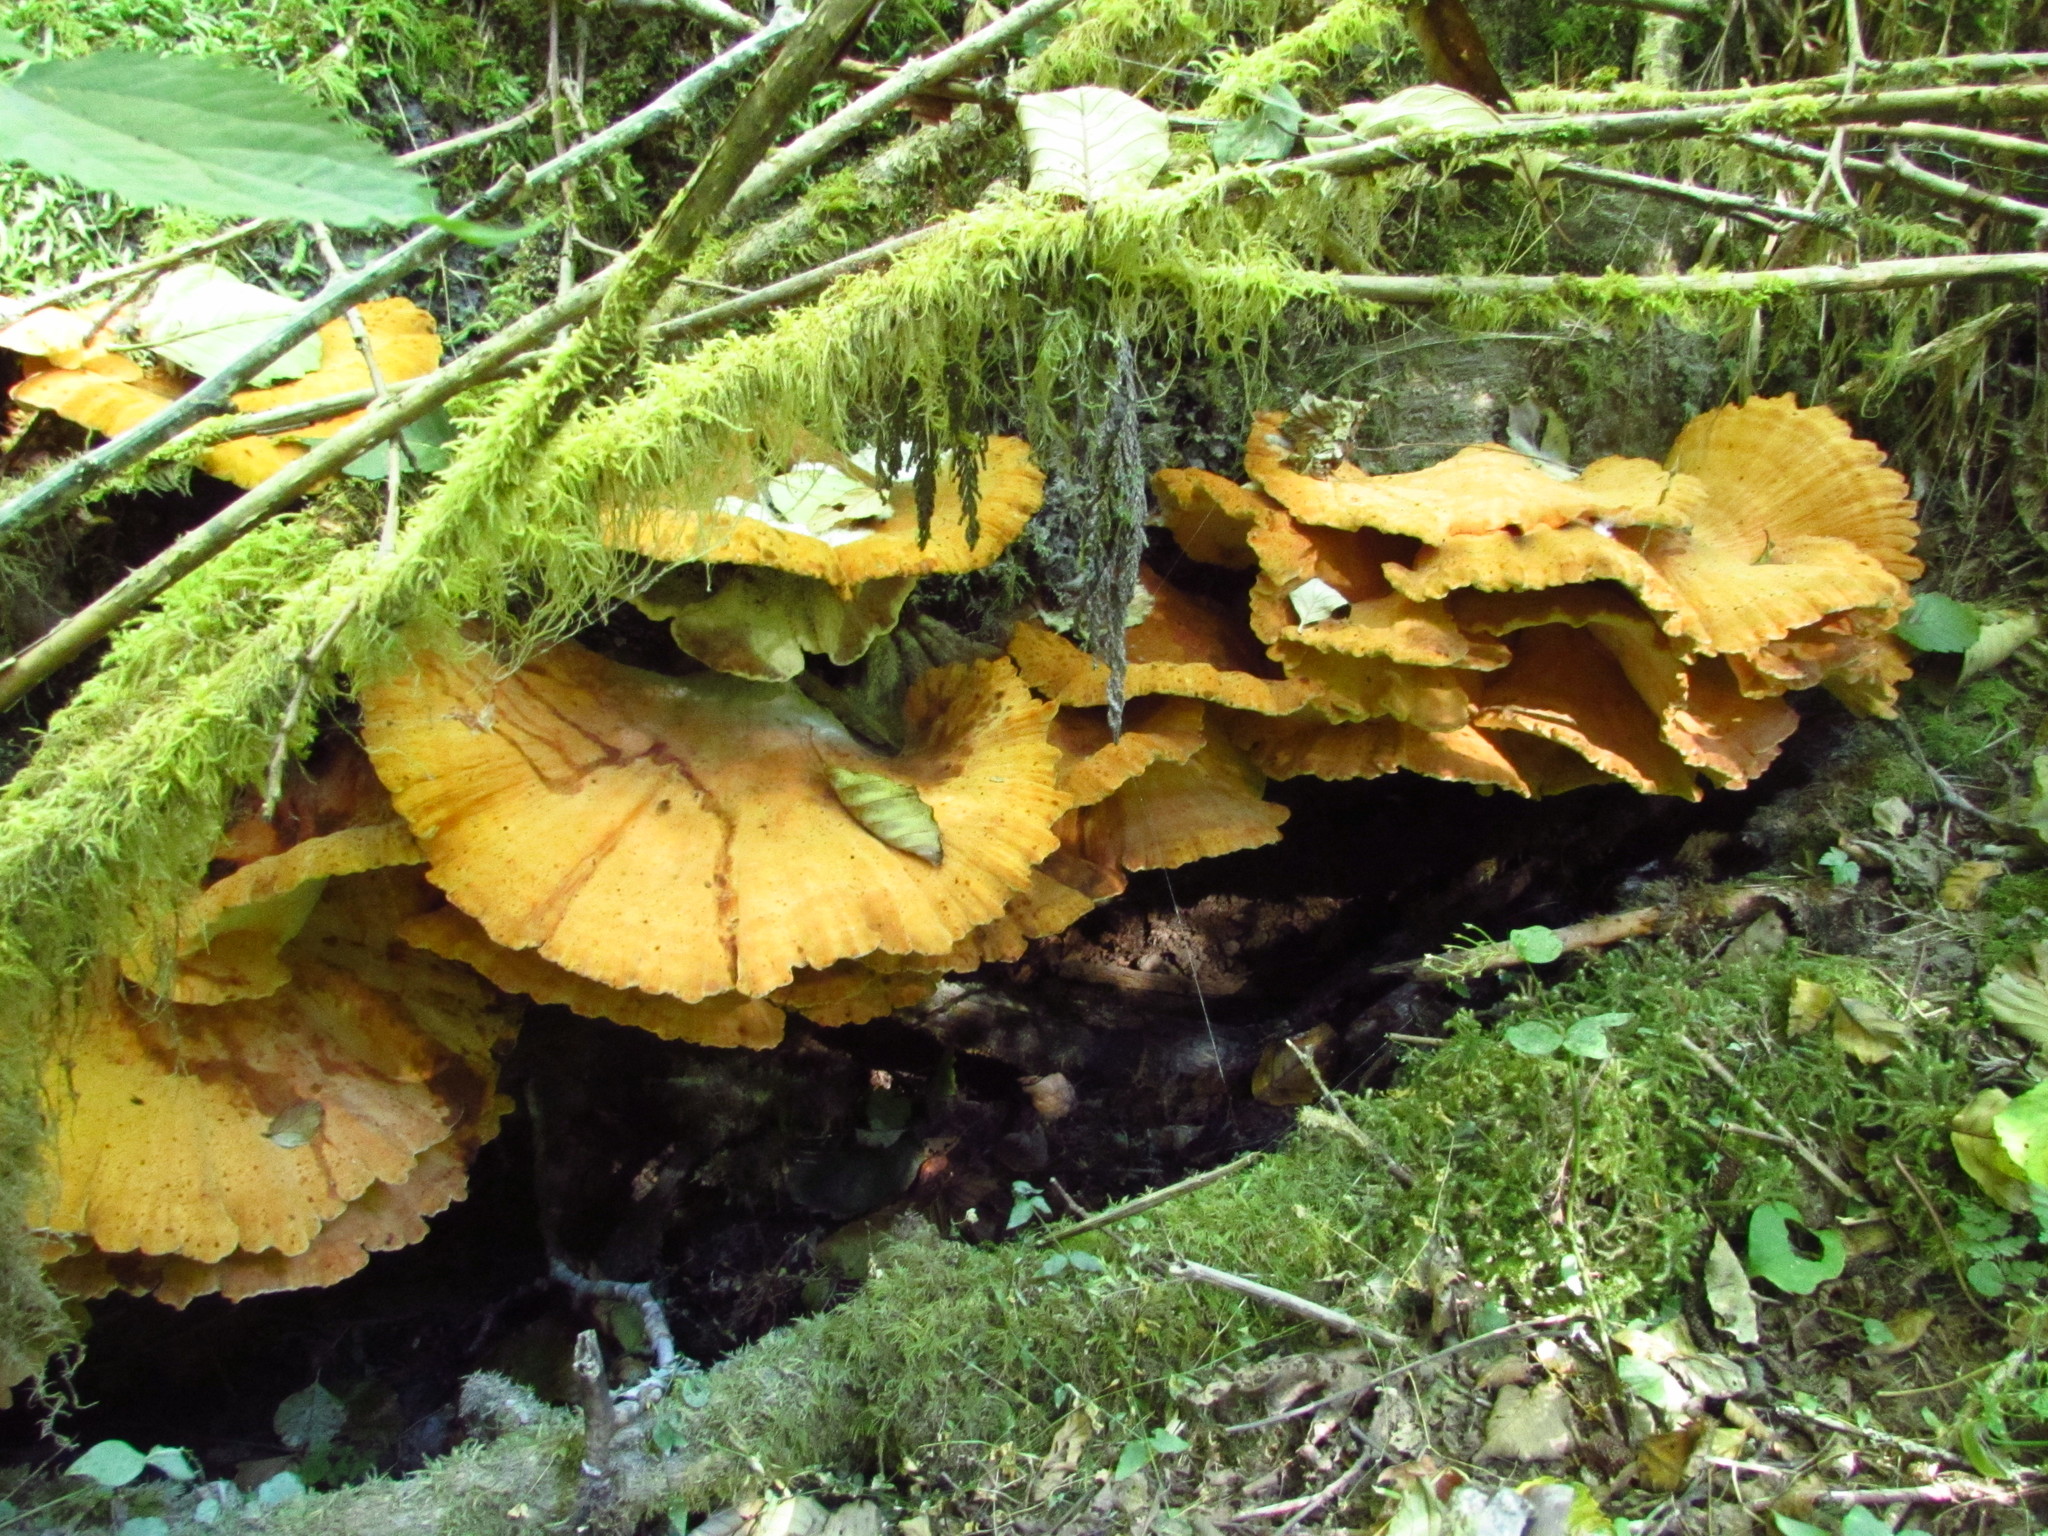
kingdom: Fungi
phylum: Basidiomycota
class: Agaricomycetes
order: Polyporales
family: Laetiporaceae
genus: Laetiporus
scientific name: Laetiporus conifericola
